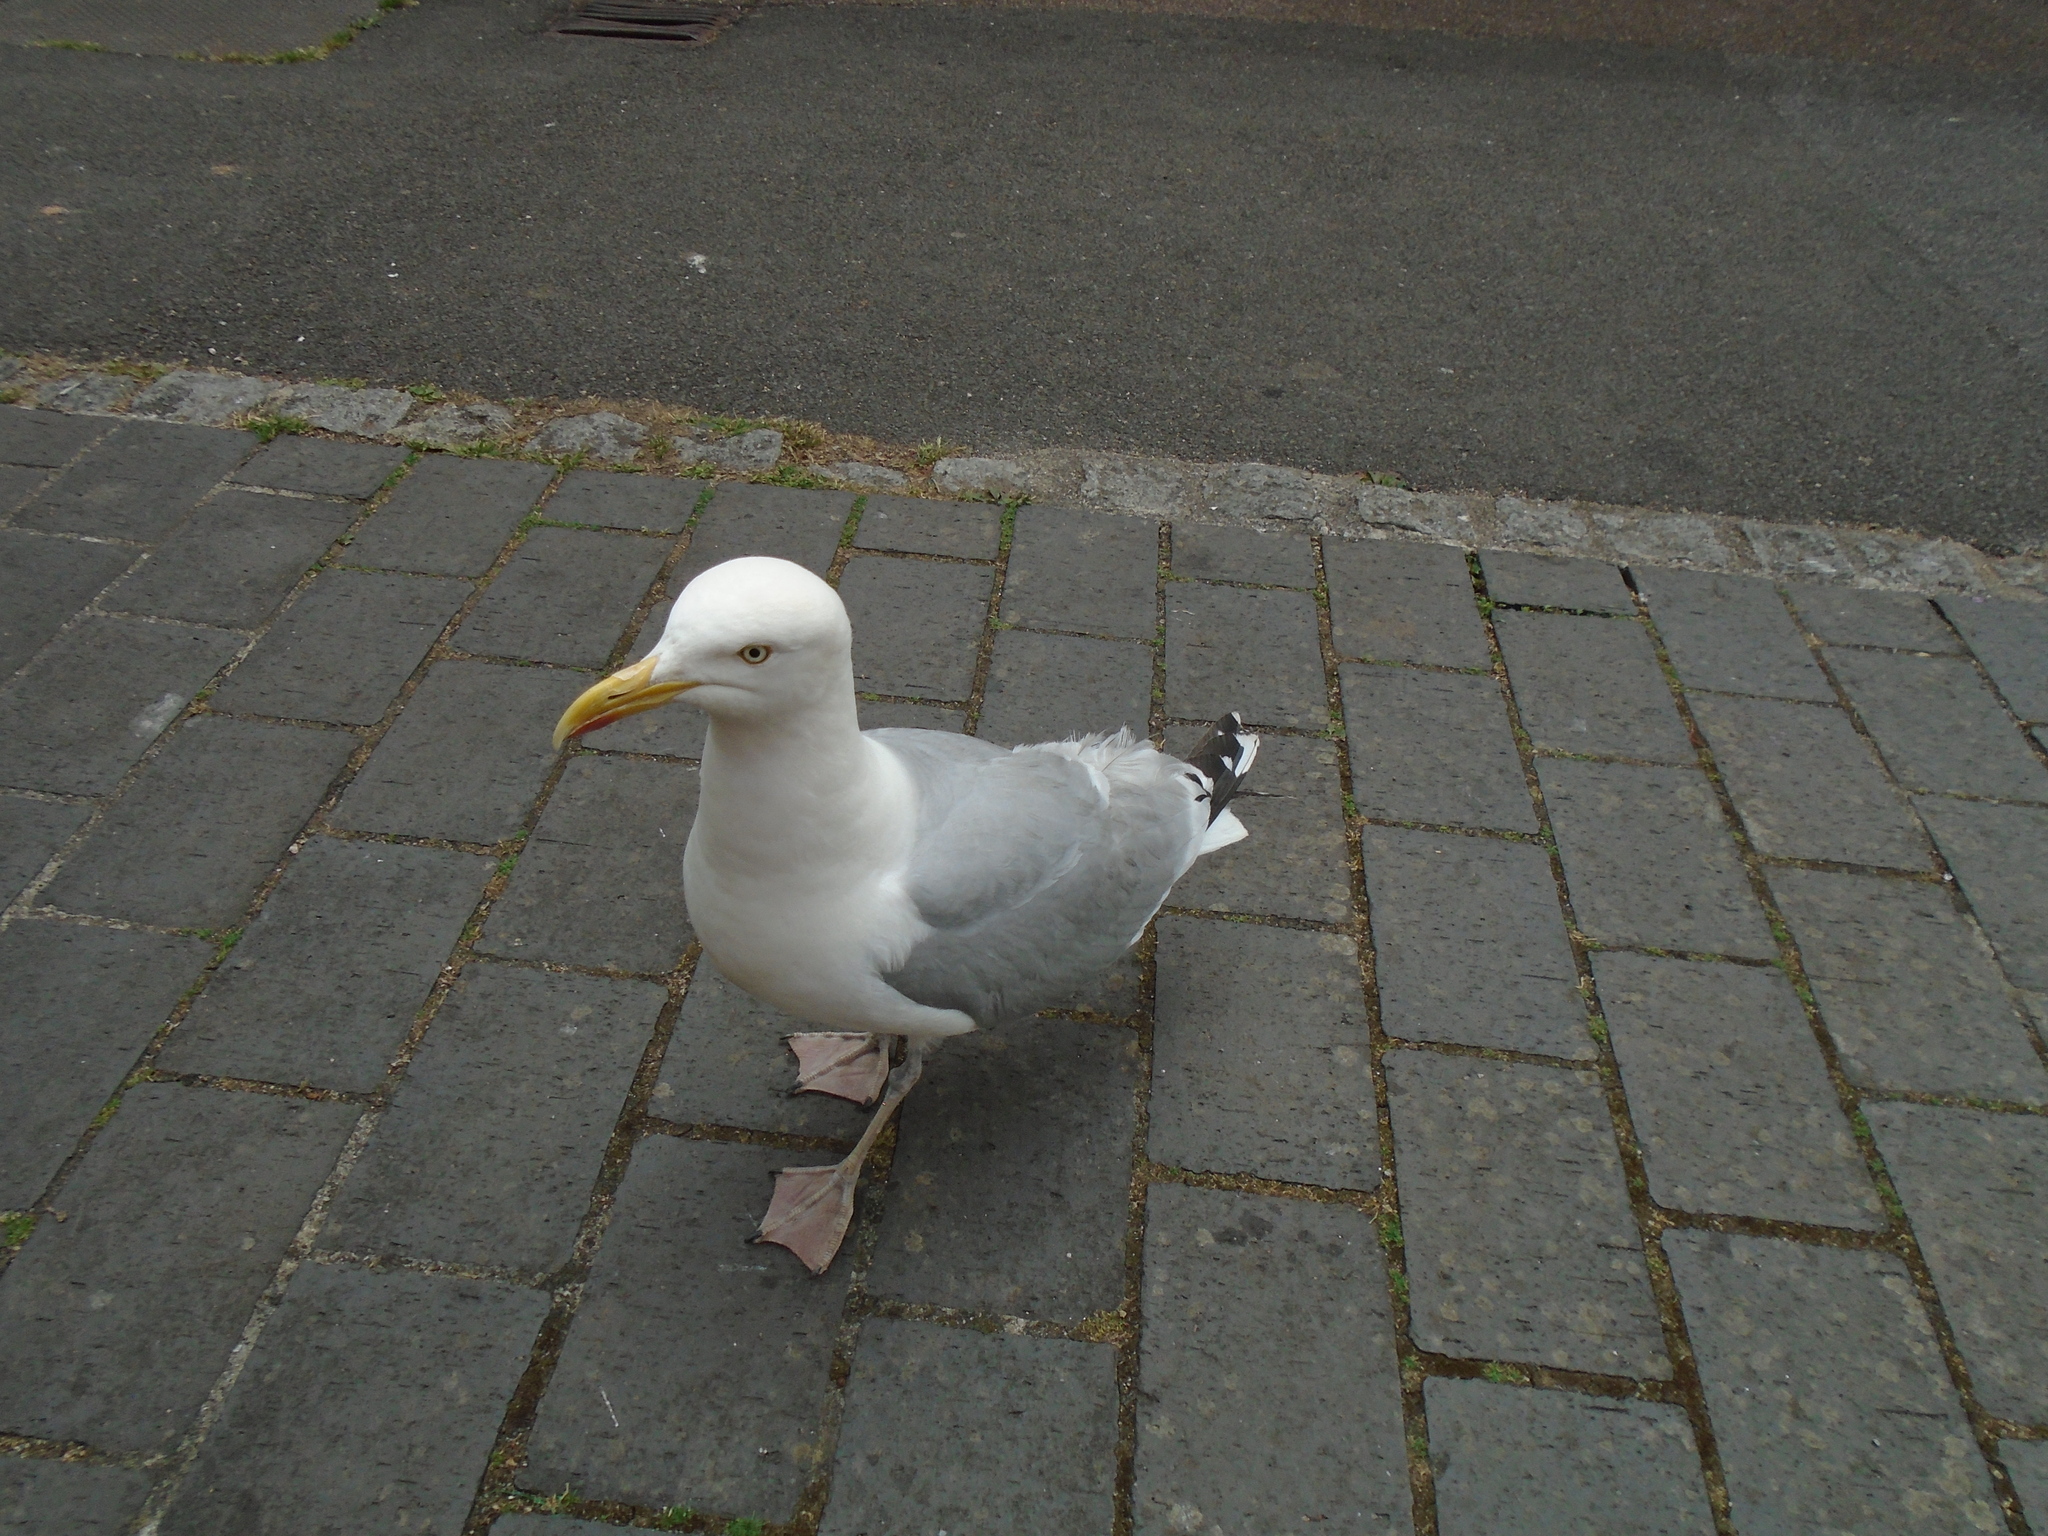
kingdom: Animalia
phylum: Chordata
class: Aves
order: Charadriiformes
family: Laridae
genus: Larus
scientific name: Larus argentatus
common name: Herring gull
